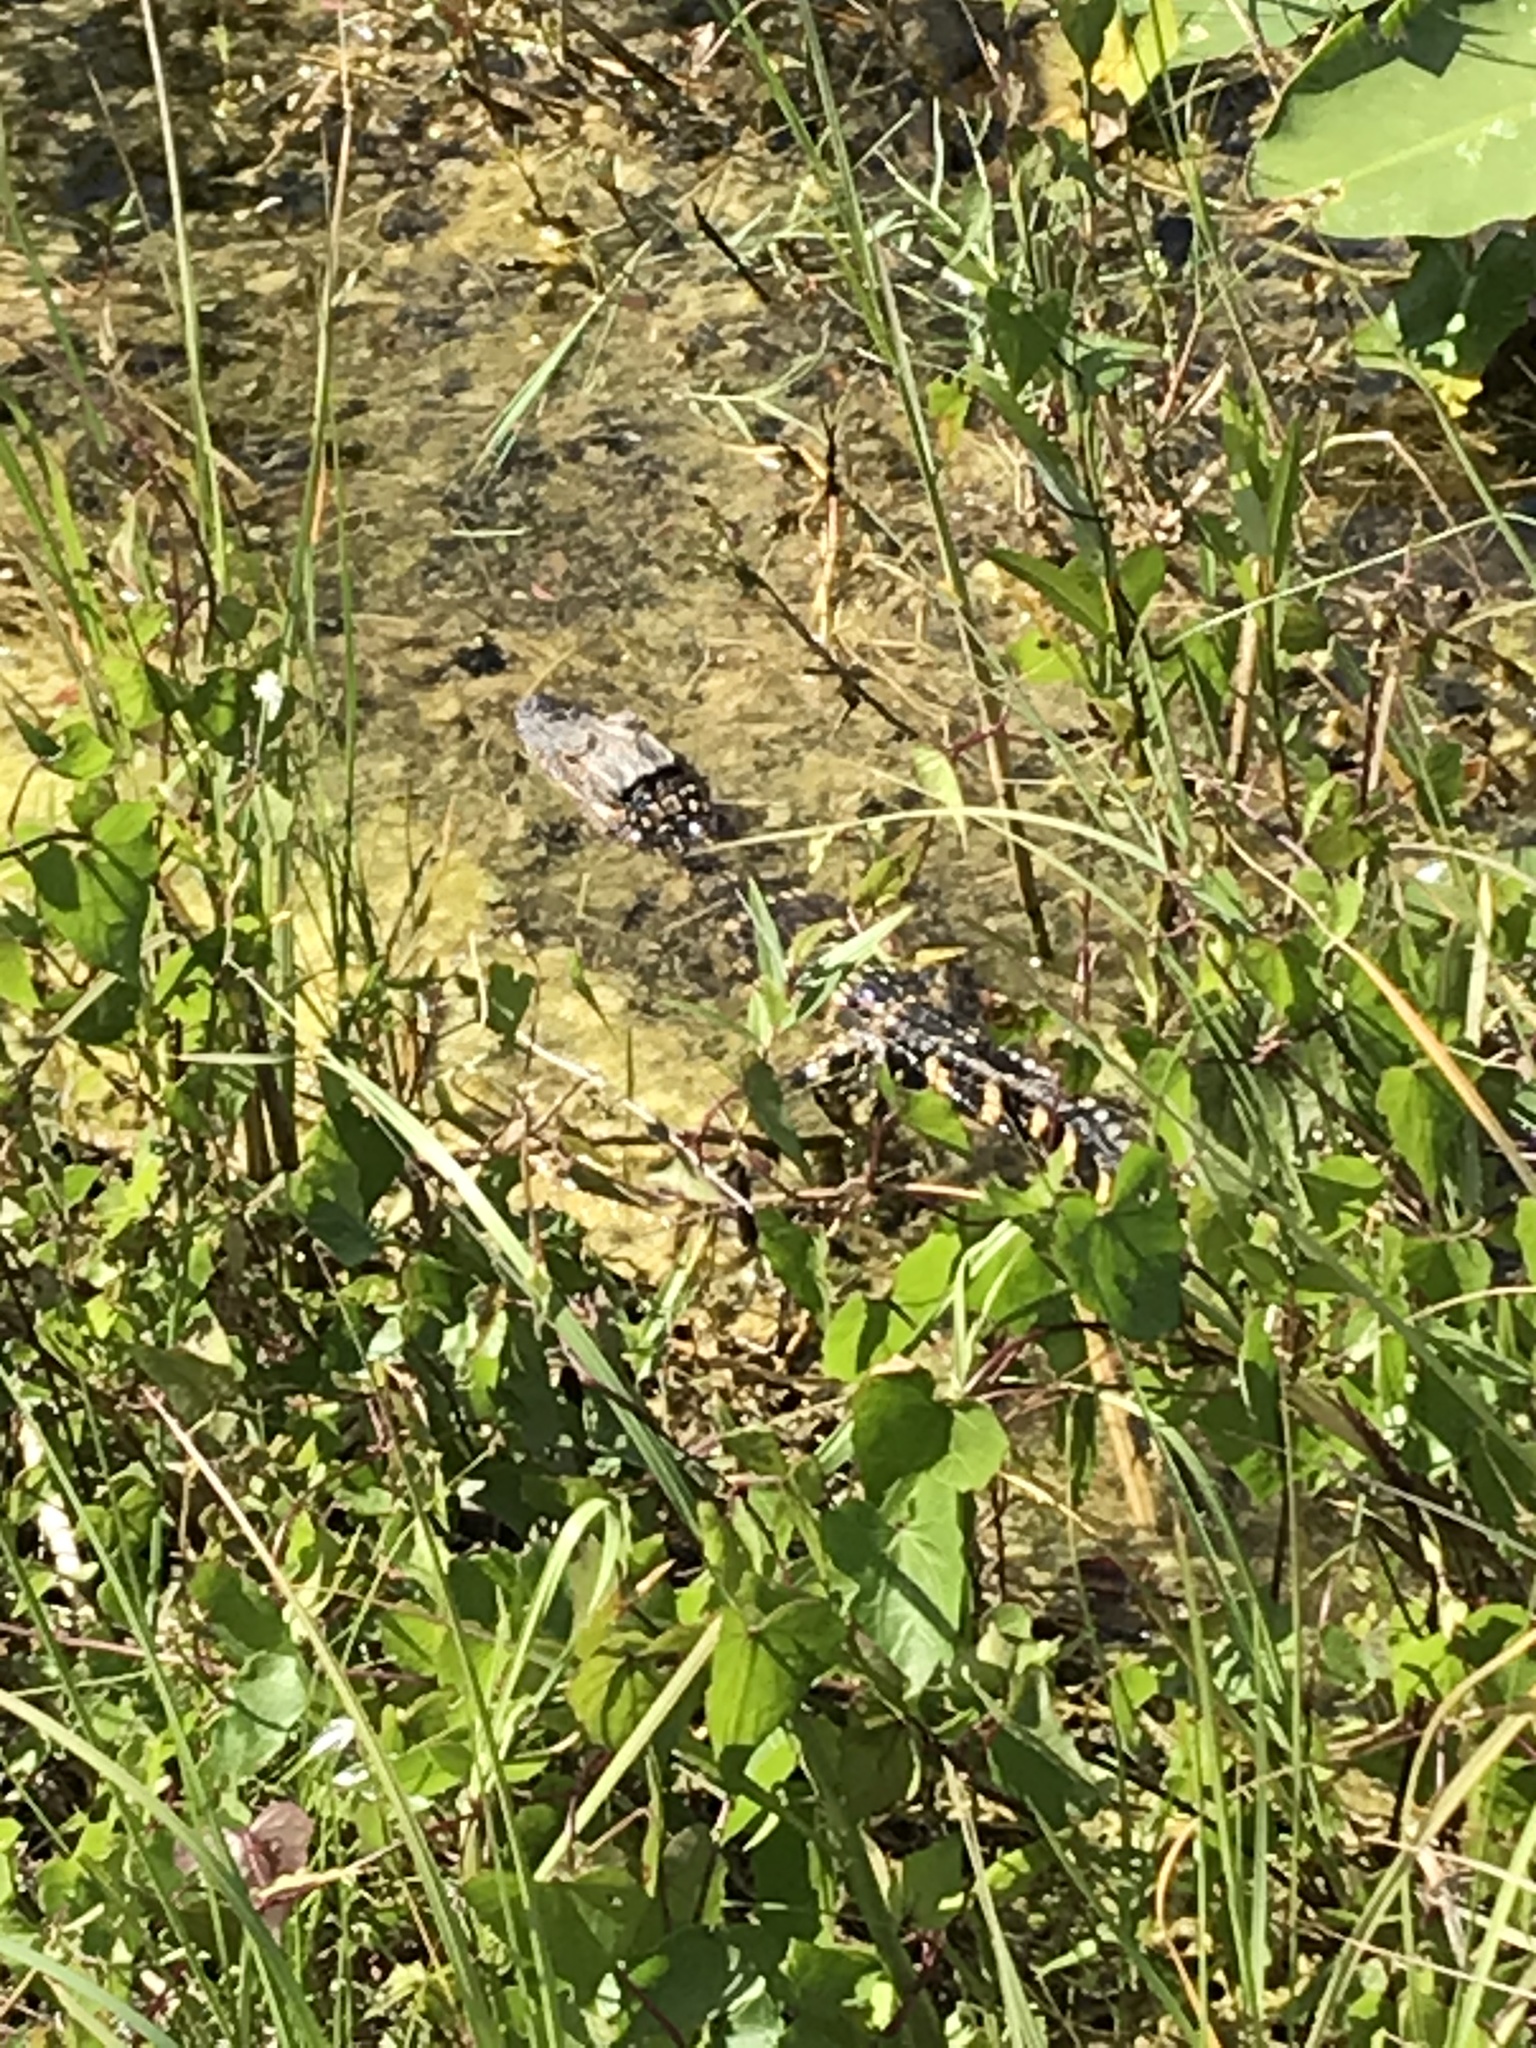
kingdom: Animalia
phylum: Chordata
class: Crocodylia
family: Alligatoridae
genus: Alligator
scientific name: Alligator mississippiensis
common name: American alligator
